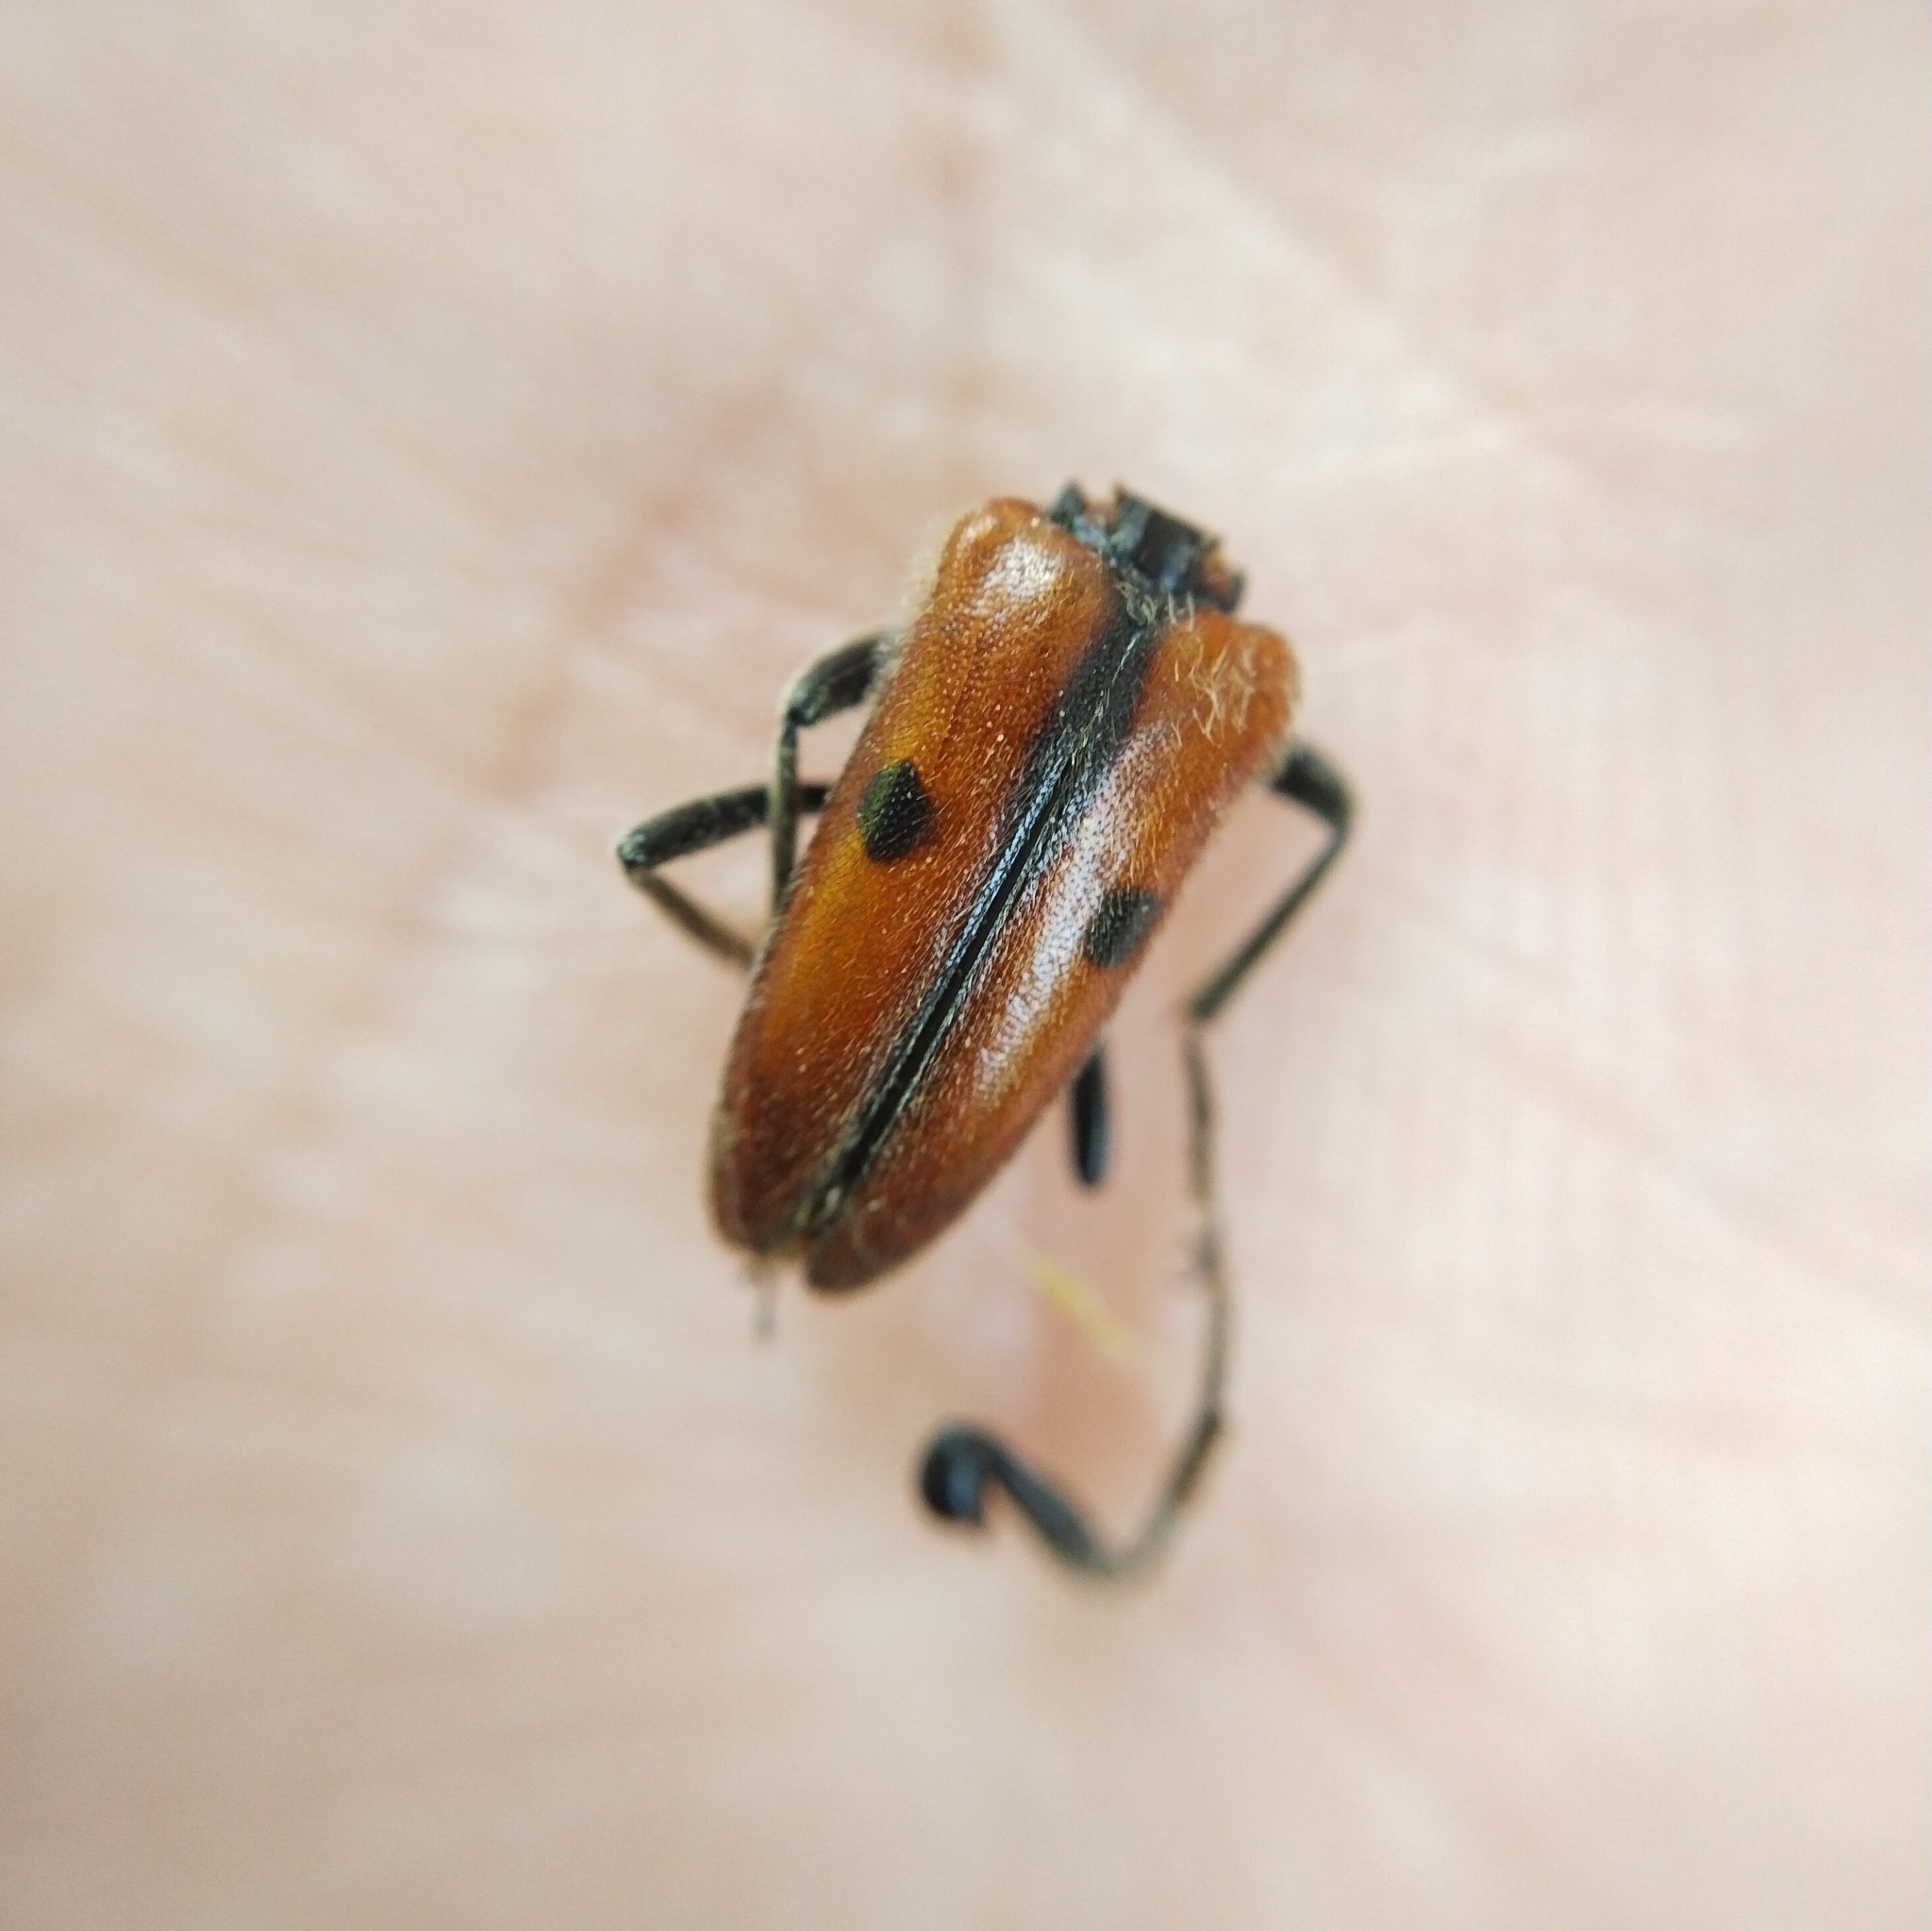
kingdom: Animalia
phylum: Arthropoda
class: Insecta
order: Coleoptera
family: Cerambycidae
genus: Vadonia
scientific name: Vadonia unipunctata
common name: Long-horned beetle
